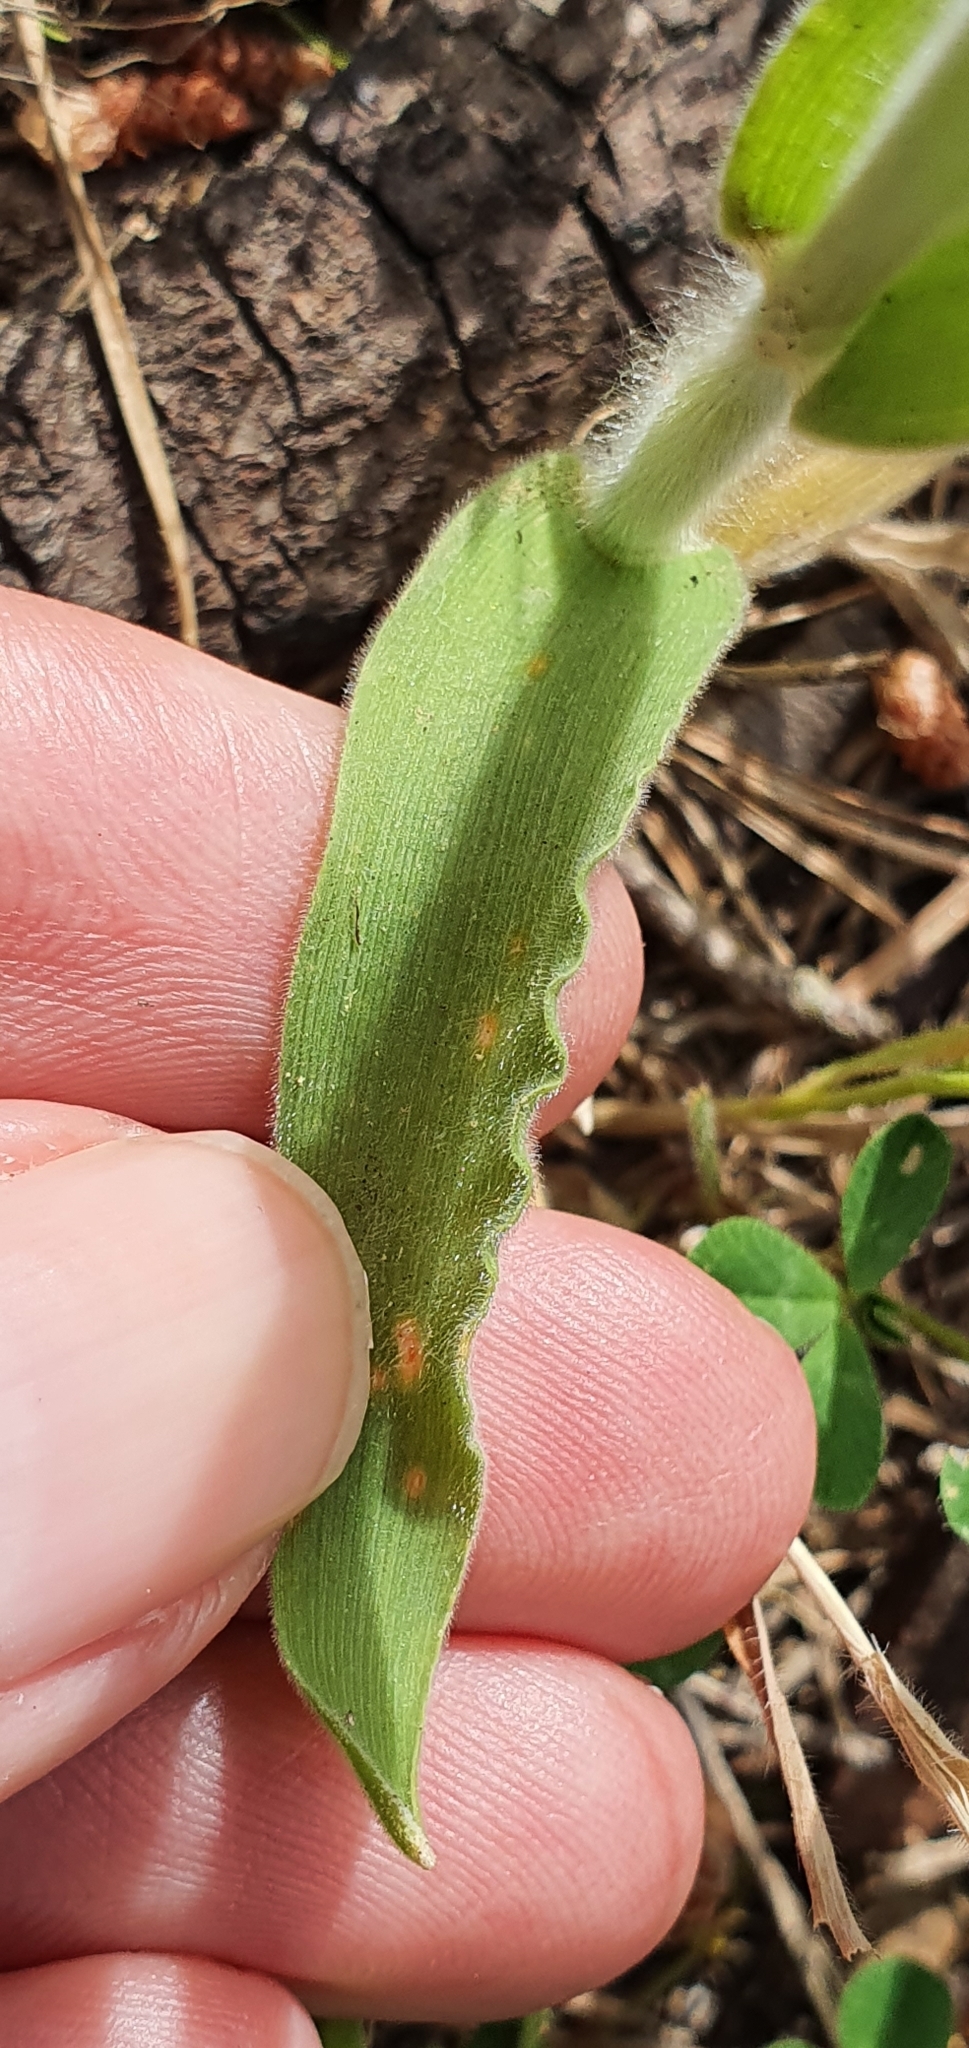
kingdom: Plantae
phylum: Tracheophyta
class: Liliopsida
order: Poales
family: Poaceae
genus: Lagurus
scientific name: Lagurus ovatus
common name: Hare's-tail
